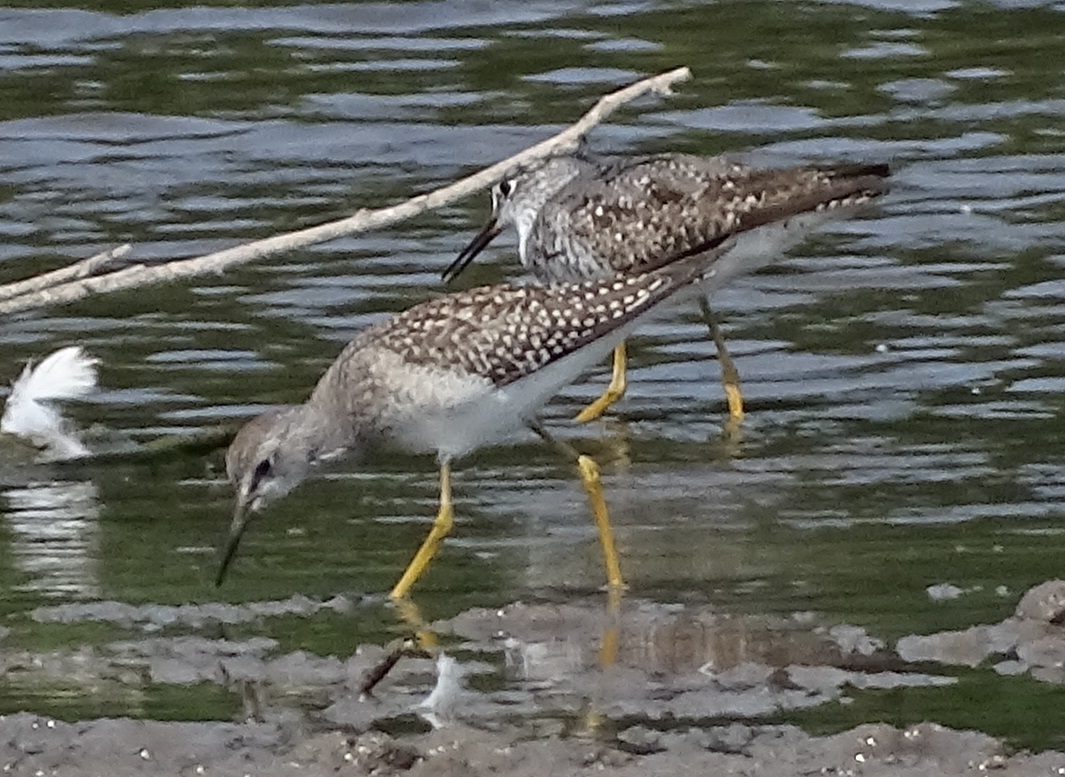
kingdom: Animalia
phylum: Chordata
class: Aves
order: Charadriiformes
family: Scolopacidae
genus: Tringa
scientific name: Tringa flavipes
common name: Lesser yellowlegs
